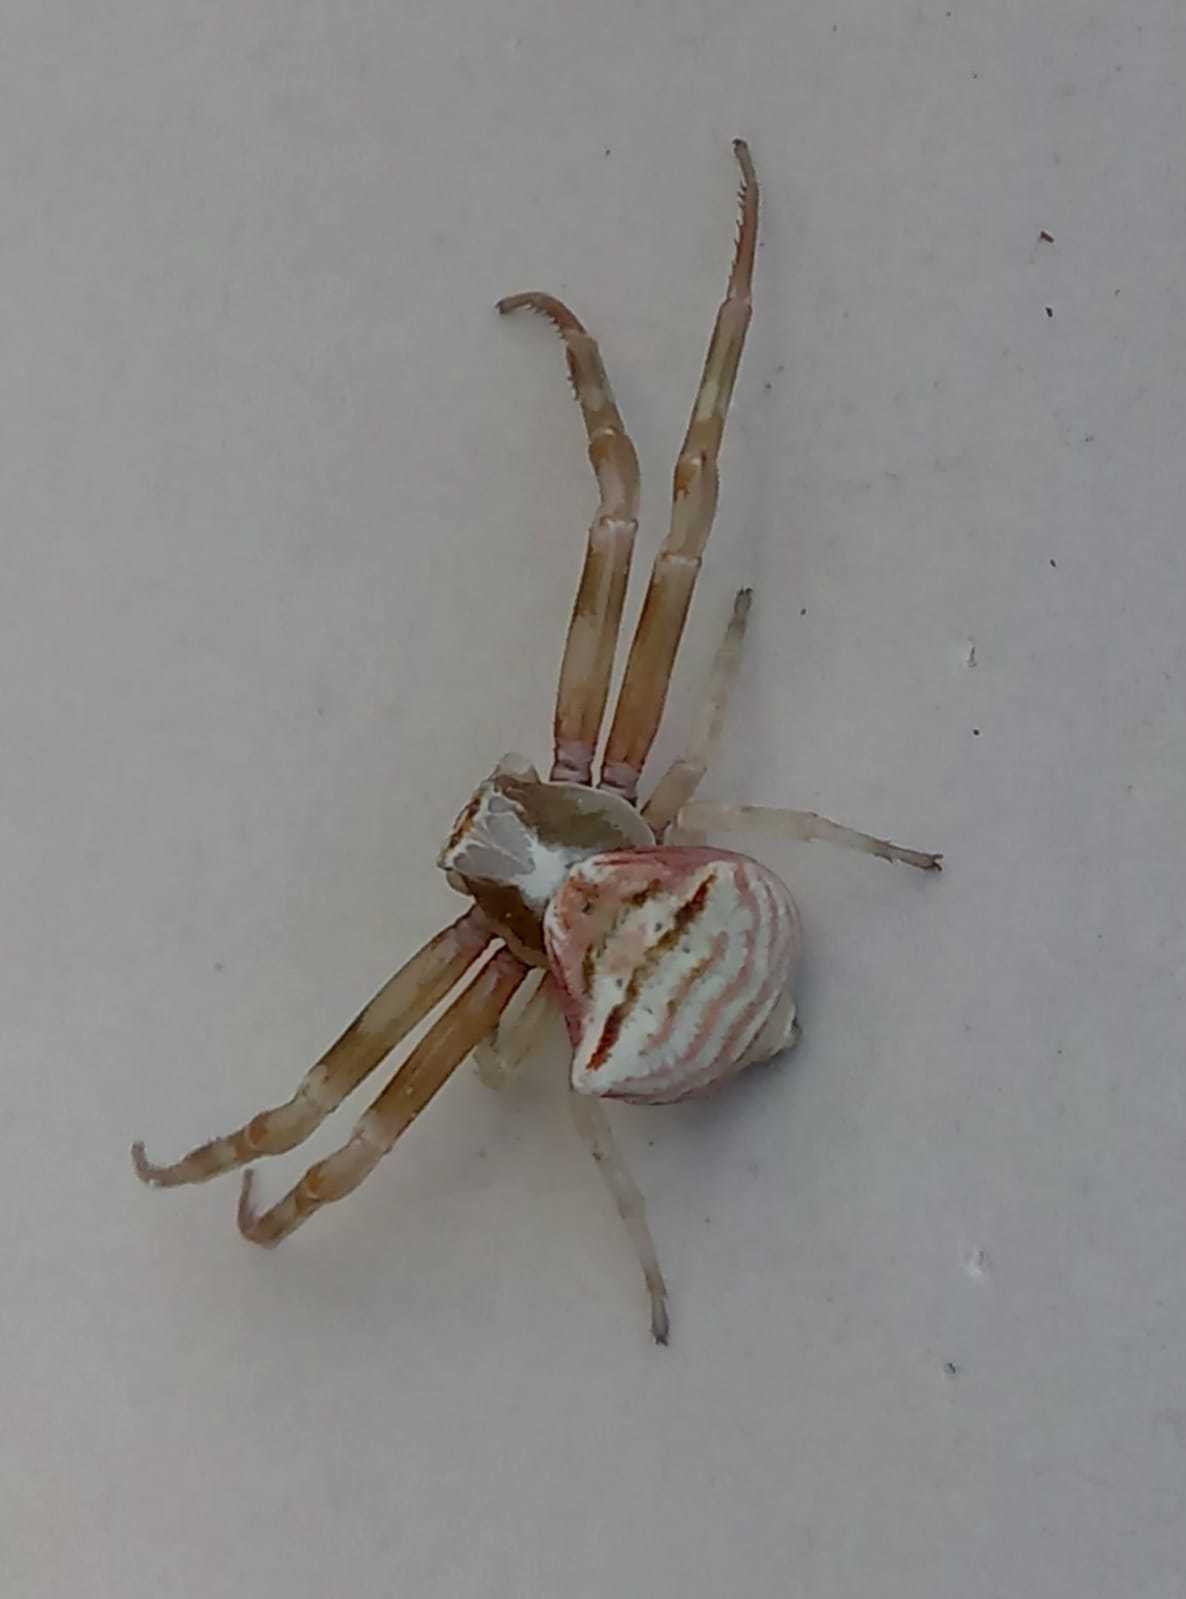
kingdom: Animalia
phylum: Arthropoda
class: Arachnida
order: Araneae
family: Thomisidae
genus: Thomisus
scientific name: Thomisus onustus
